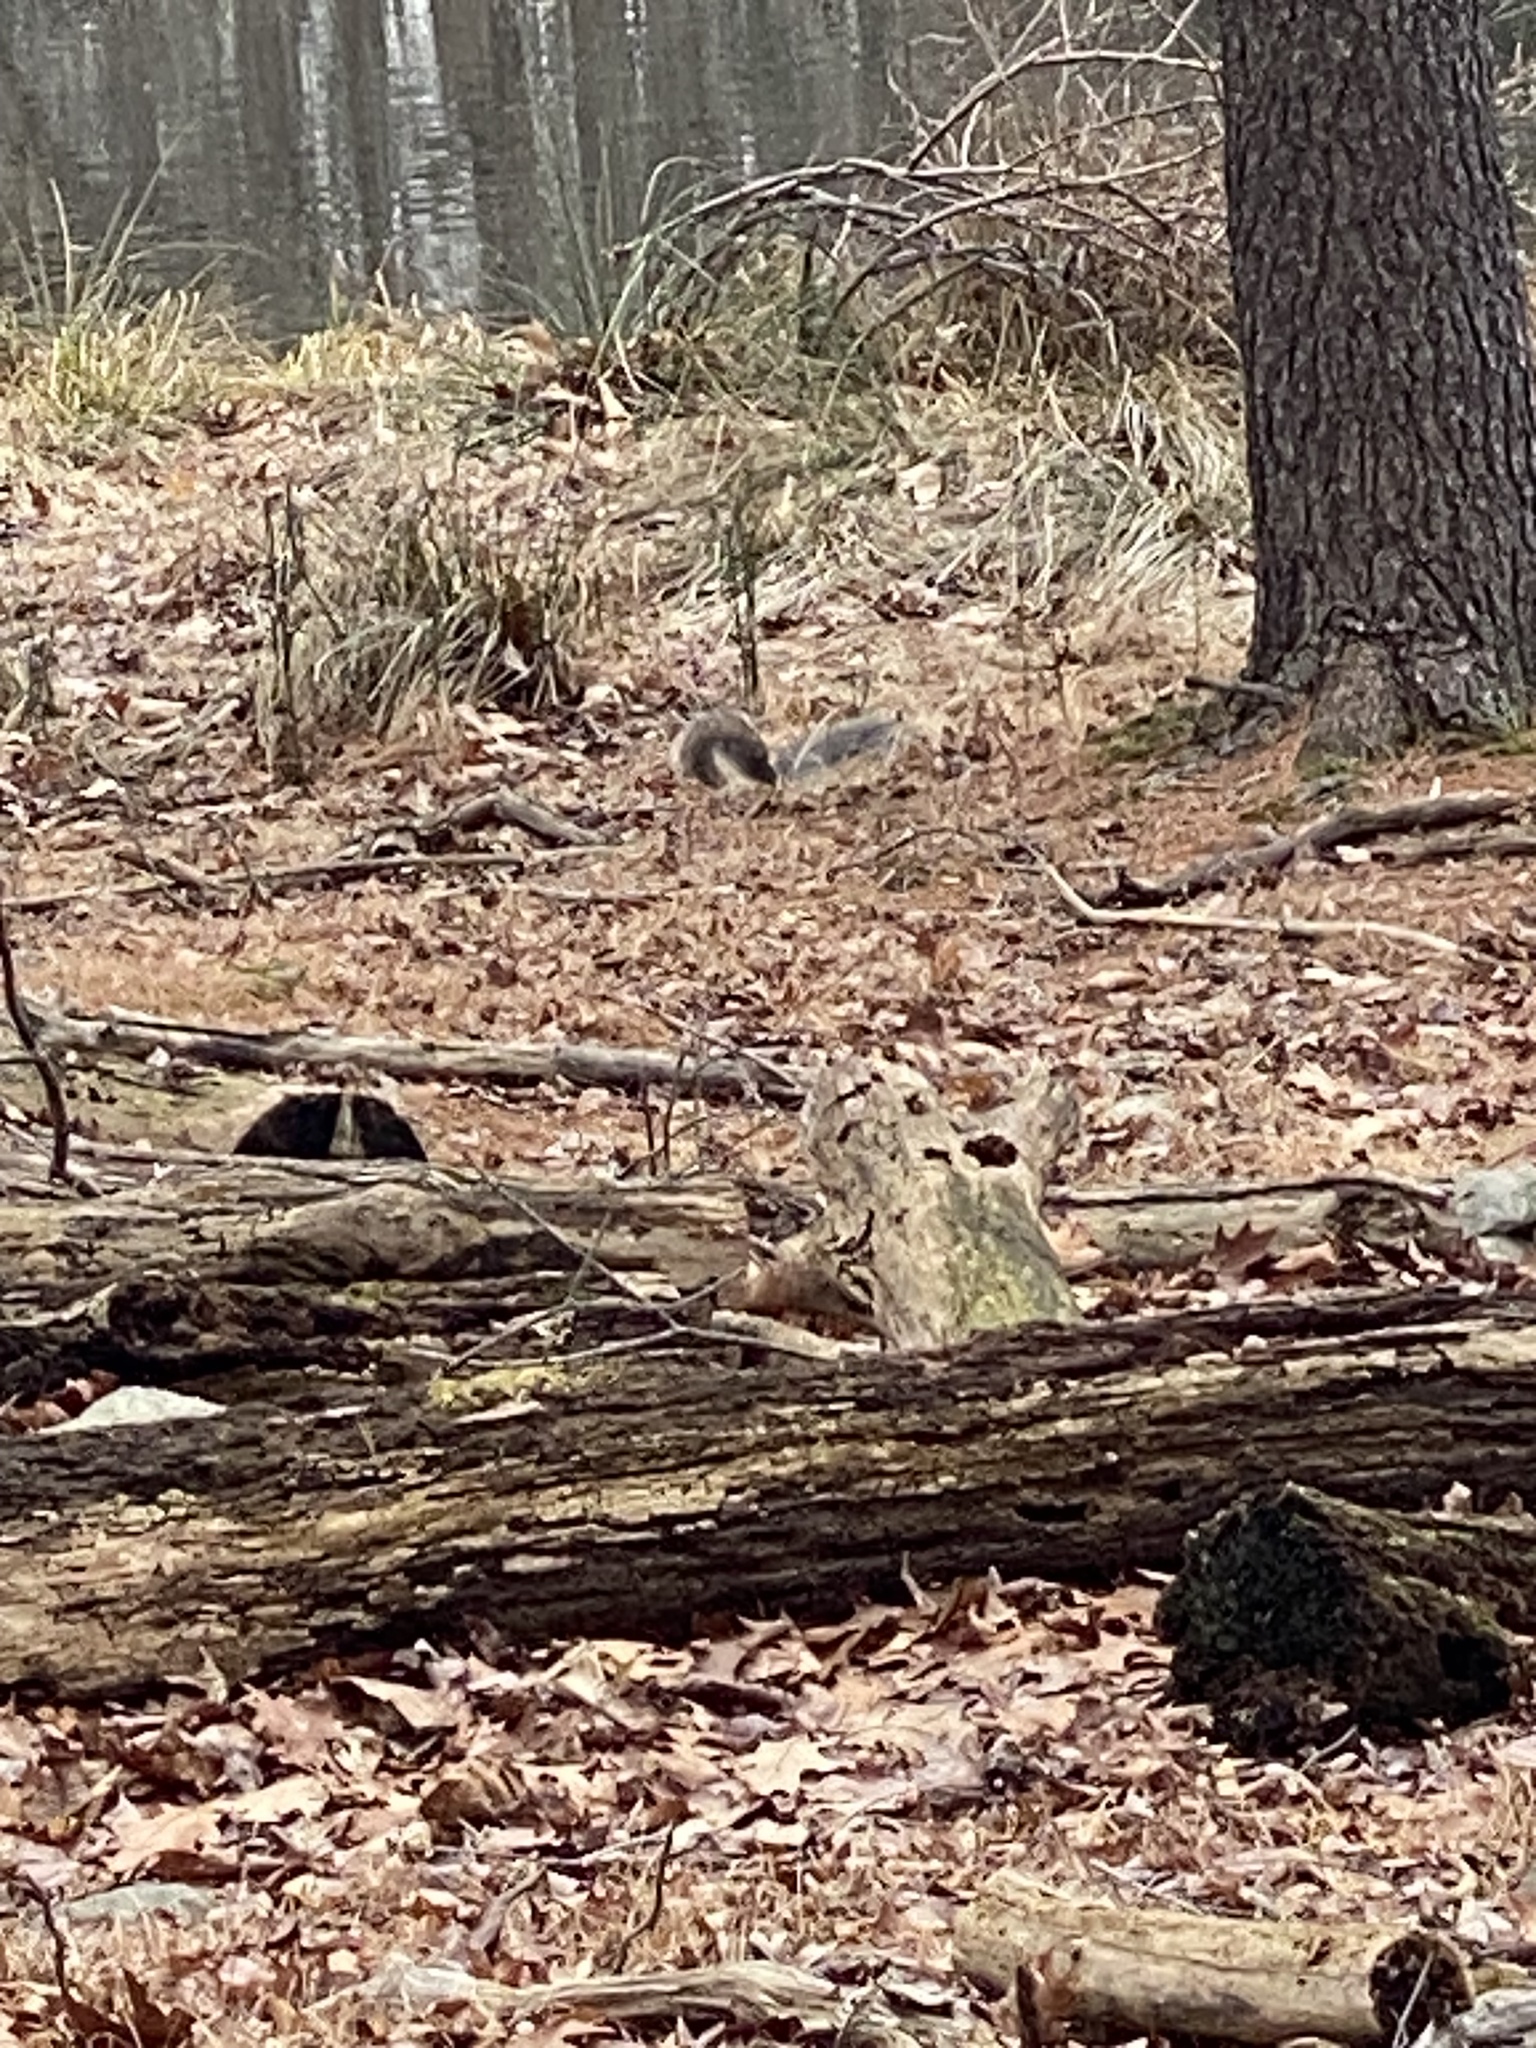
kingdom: Animalia
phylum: Chordata
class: Mammalia
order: Rodentia
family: Sciuridae
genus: Sciurus
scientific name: Sciurus carolinensis
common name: Eastern gray squirrel
